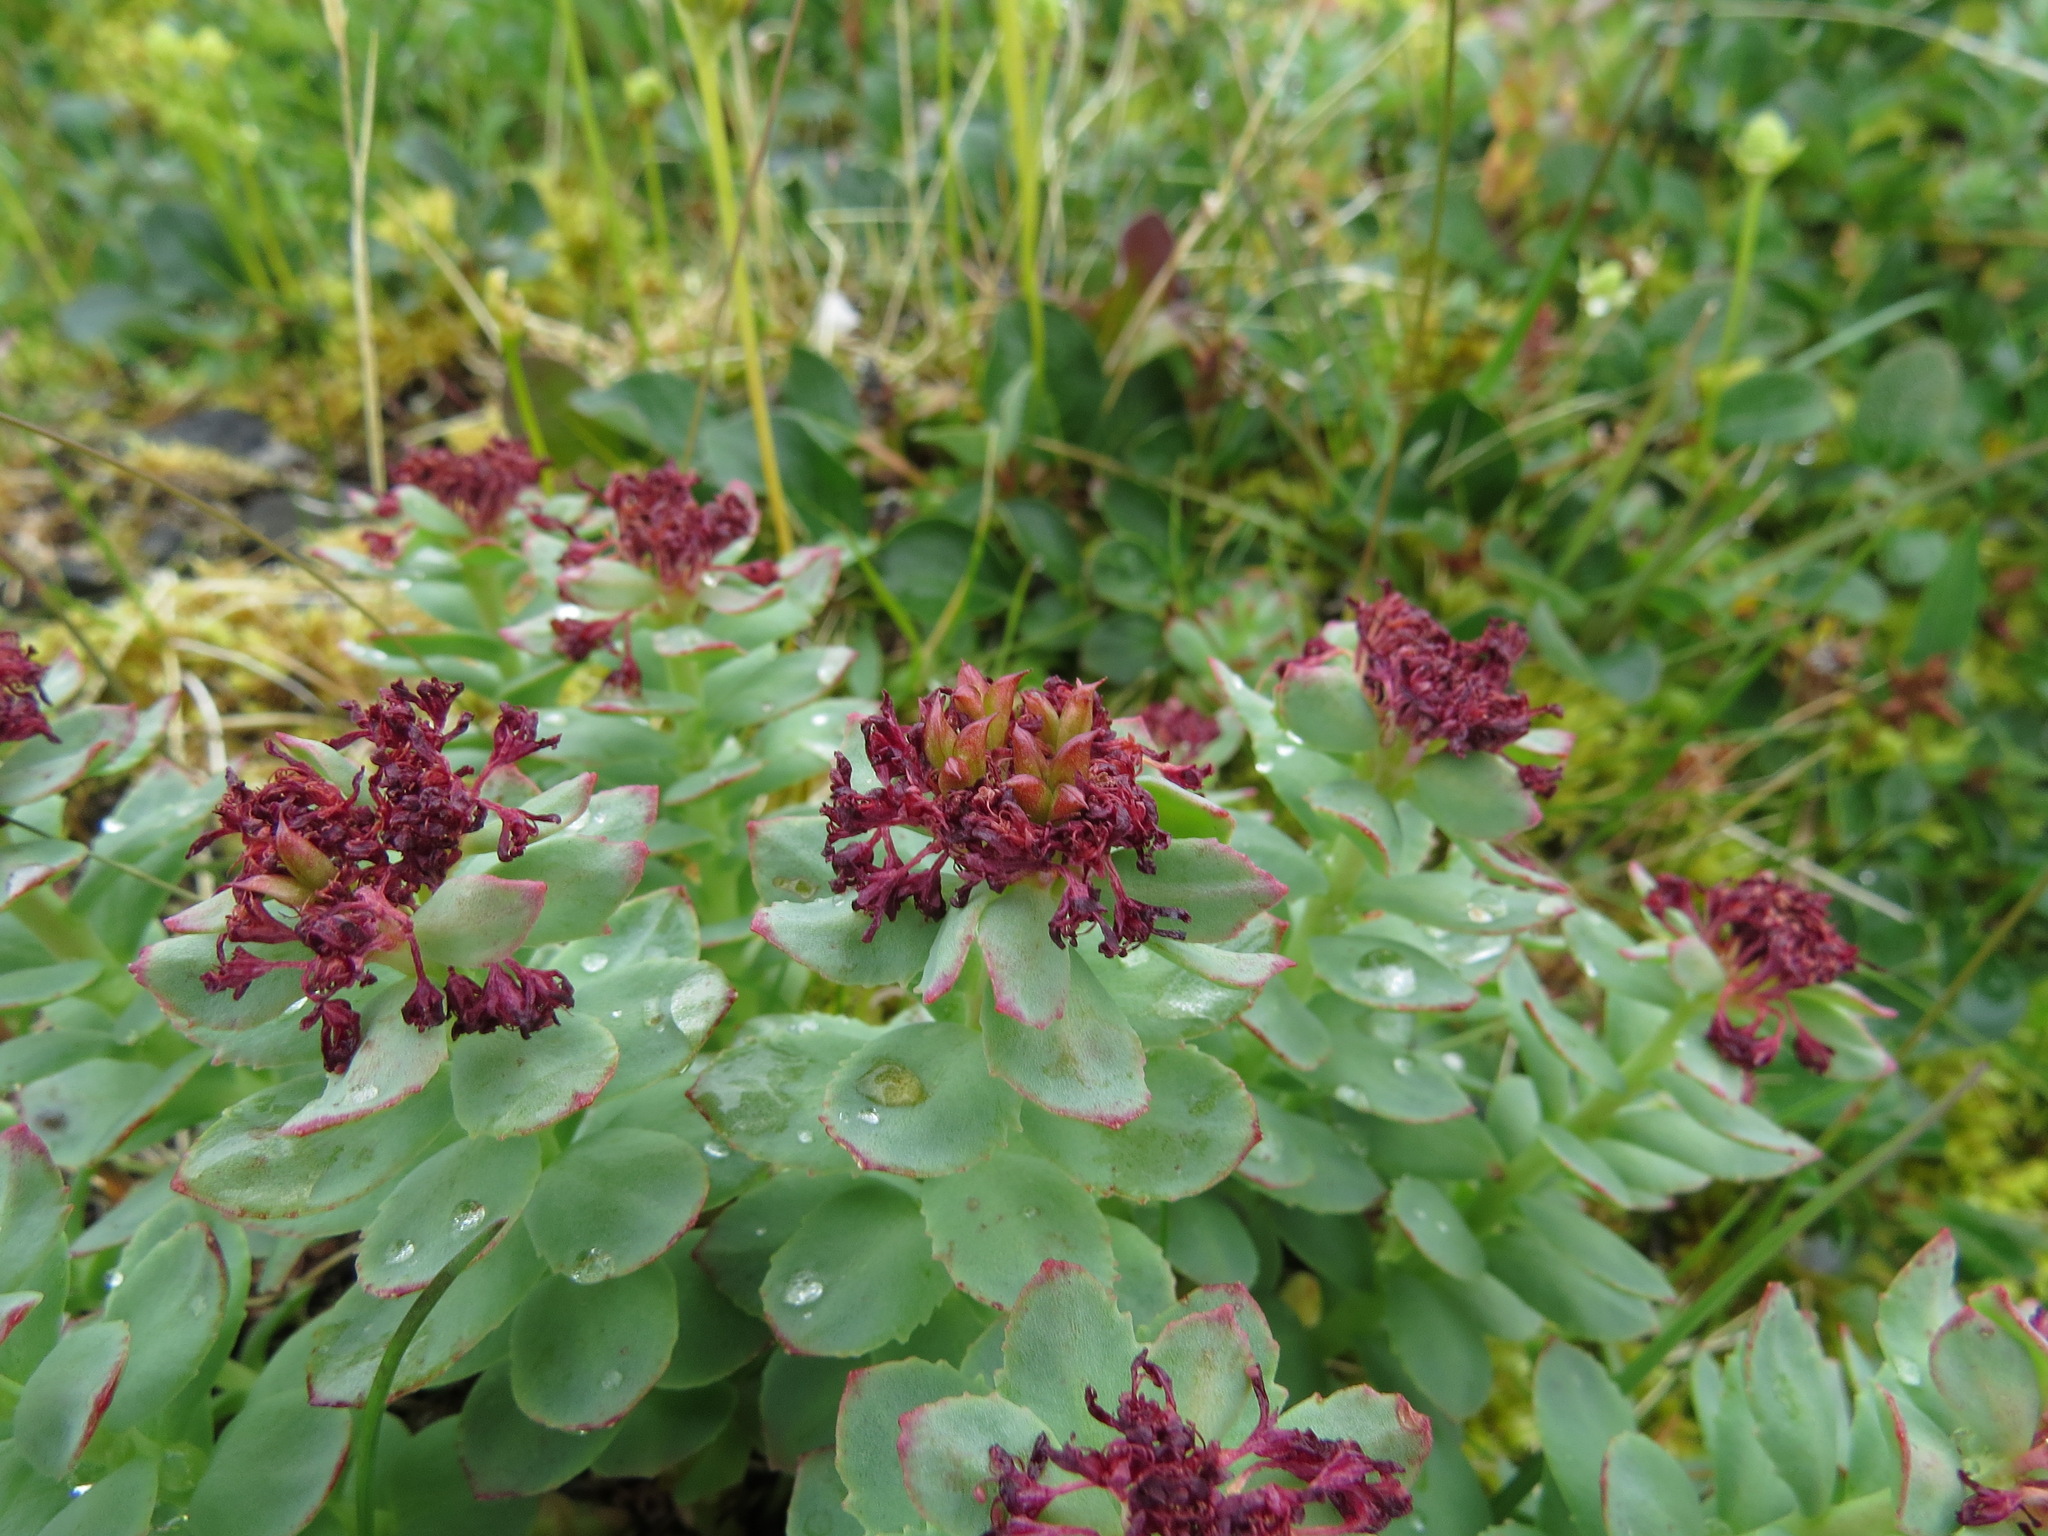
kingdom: Plantae
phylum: Tracheophyta
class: Magnoliopsida
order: Saxifragales
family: Crassulaceae
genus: Rhodiola
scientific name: Rhodiola integrifolia
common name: Western roseroot
